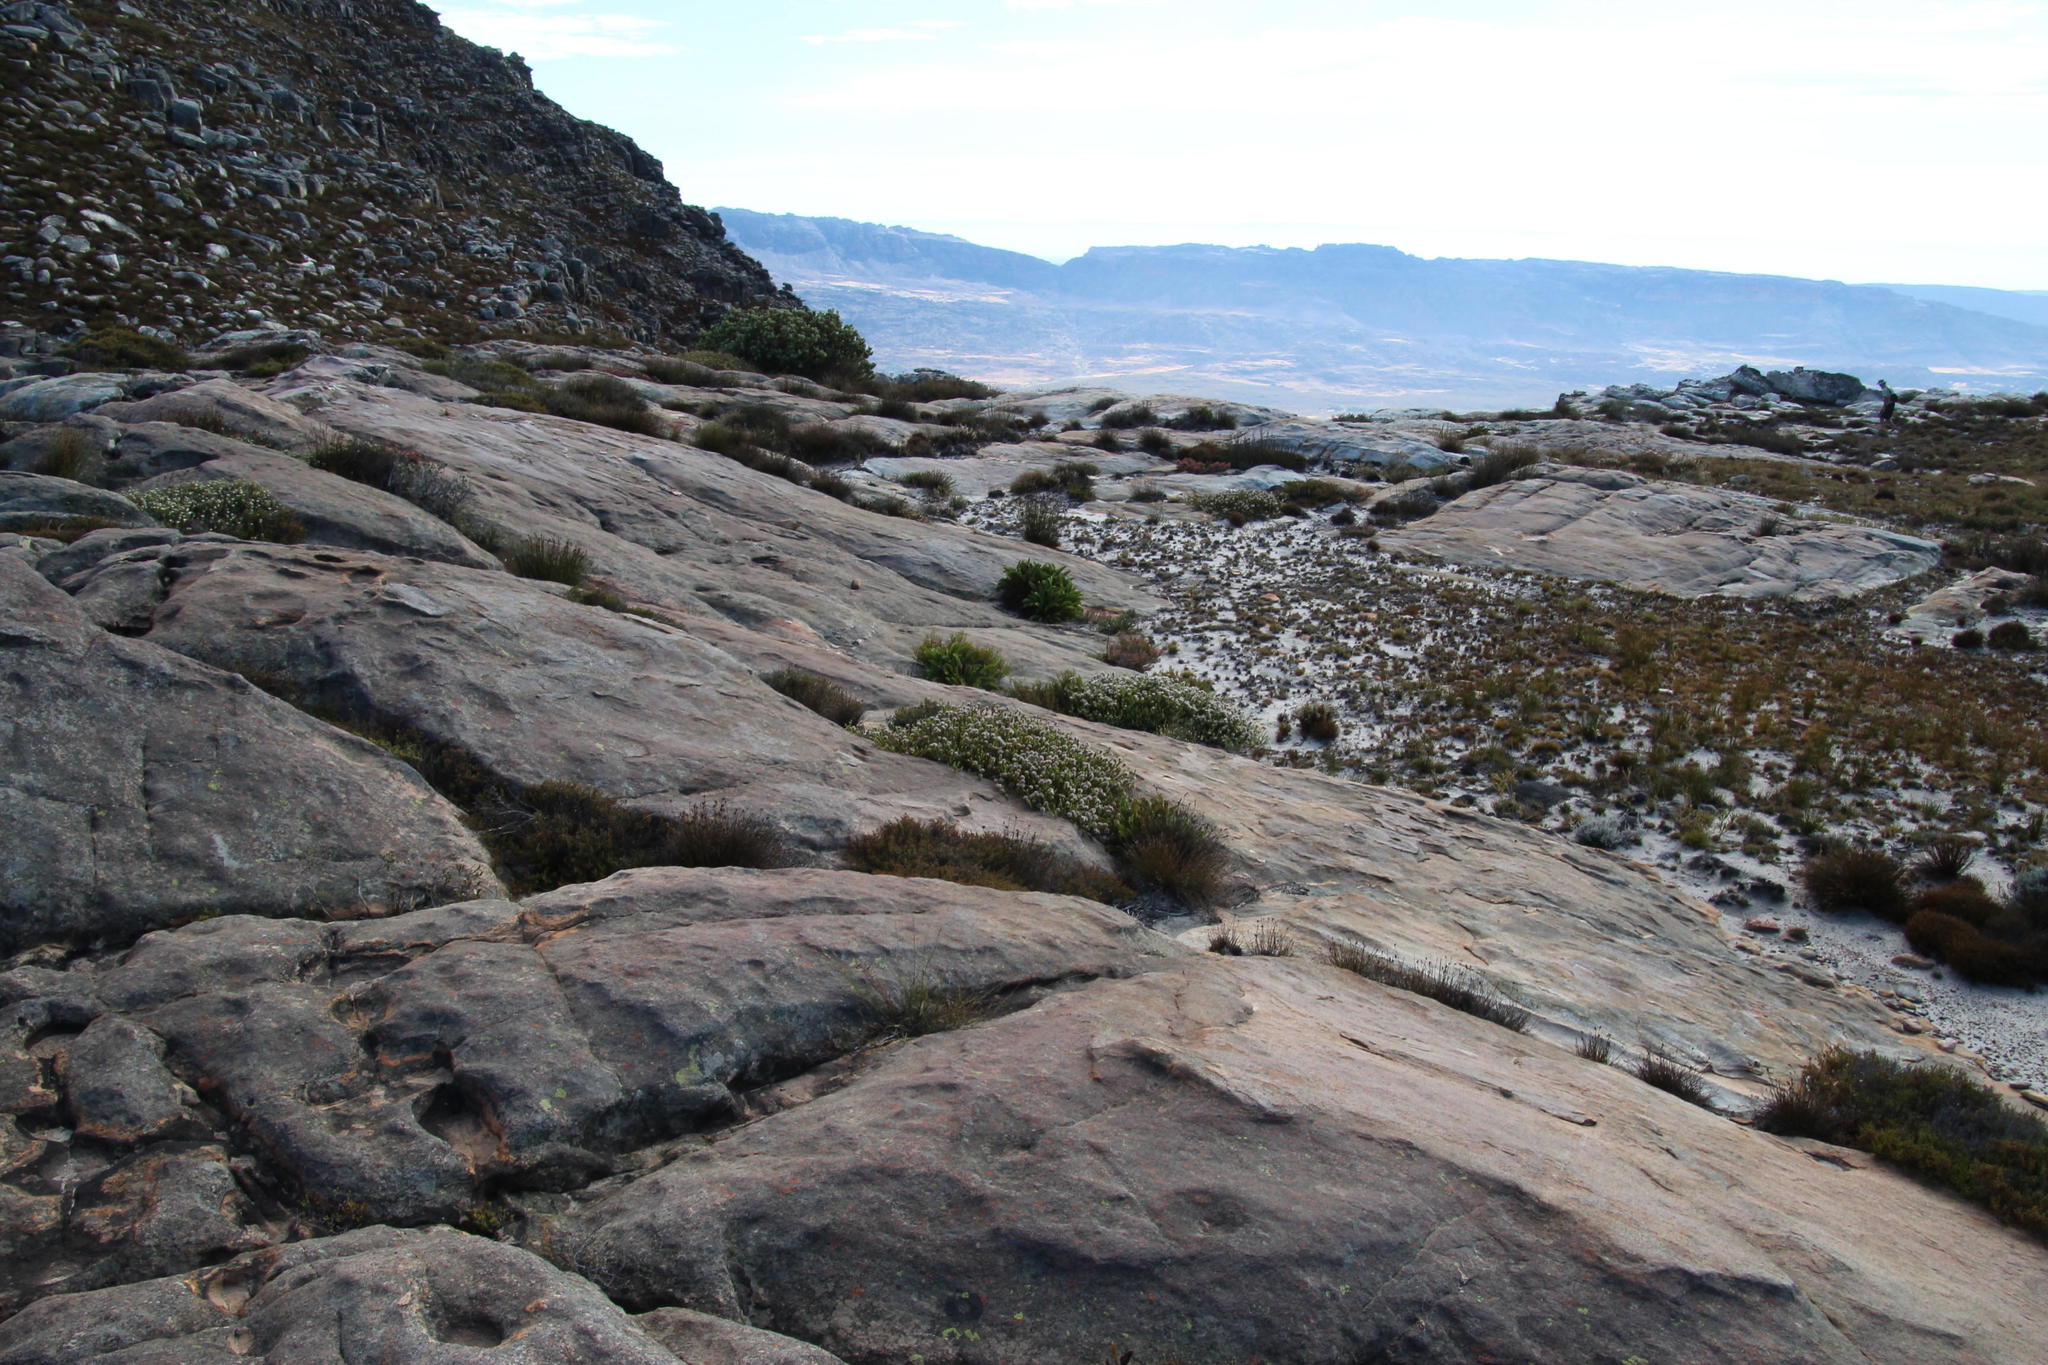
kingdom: Plantae
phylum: Tracheophyta
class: Magnoliopsida
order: Proteales
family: Proteaceae
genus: Sorocephalus
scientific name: Sorocephalus lanatus
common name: Common clusterhead
